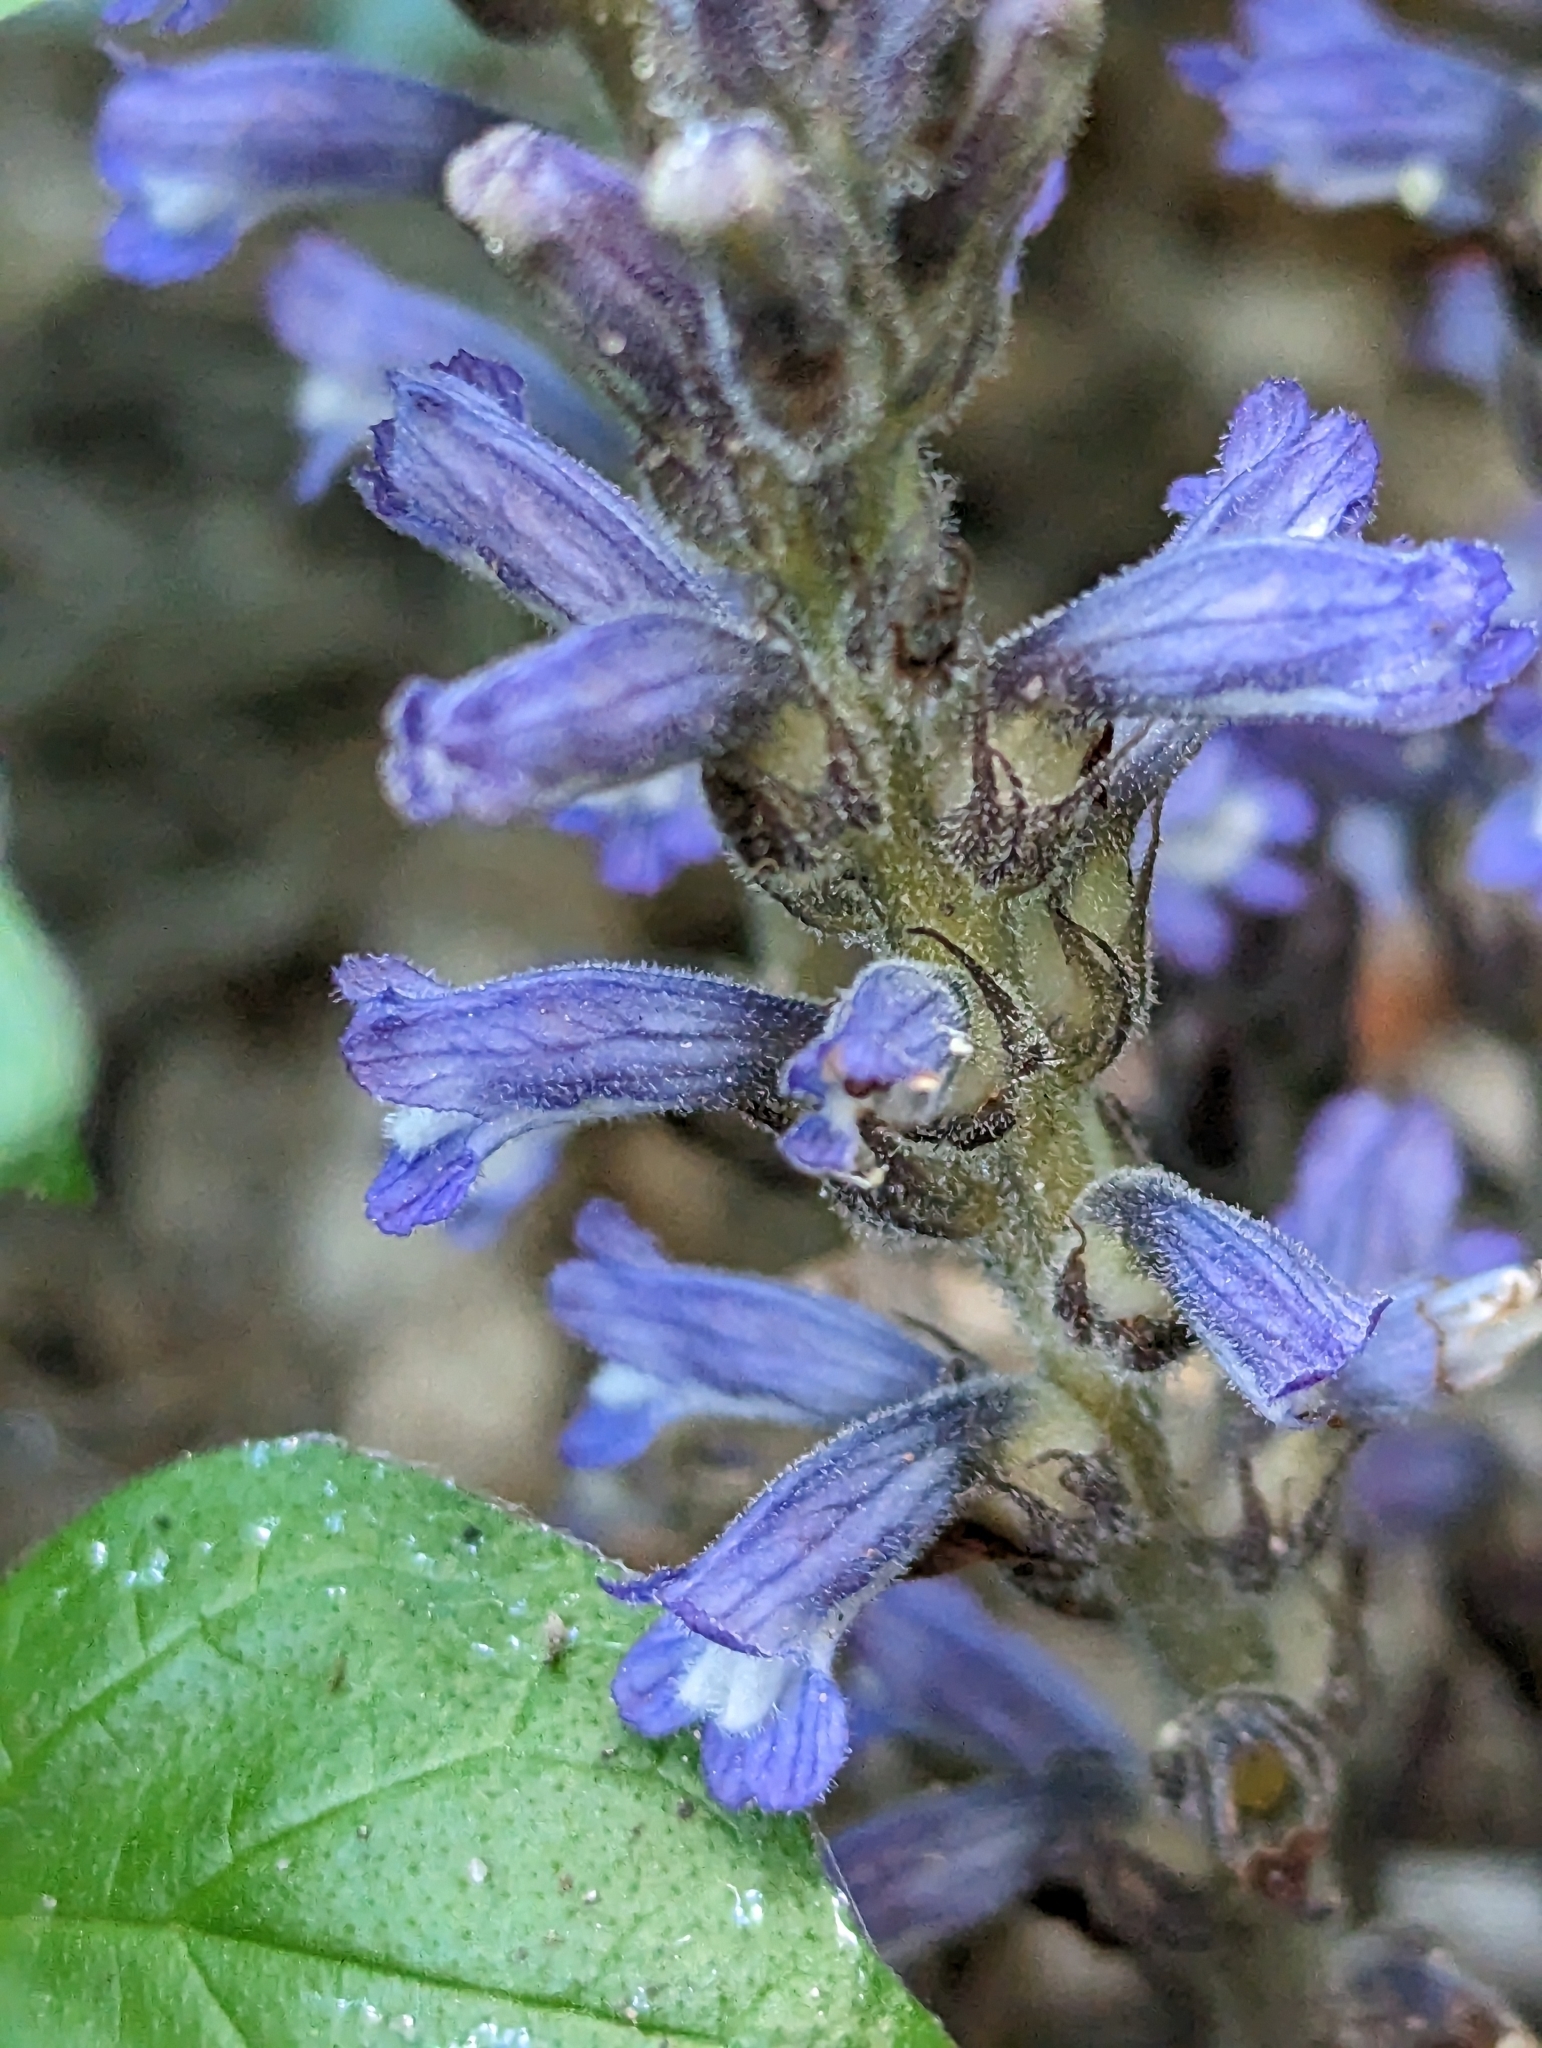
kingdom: Plantae
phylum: Tracheophyta
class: Magnoliopsida
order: Lamiales
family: Orobanchaceae
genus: Phelipanche
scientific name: Phelipanche mutelii
